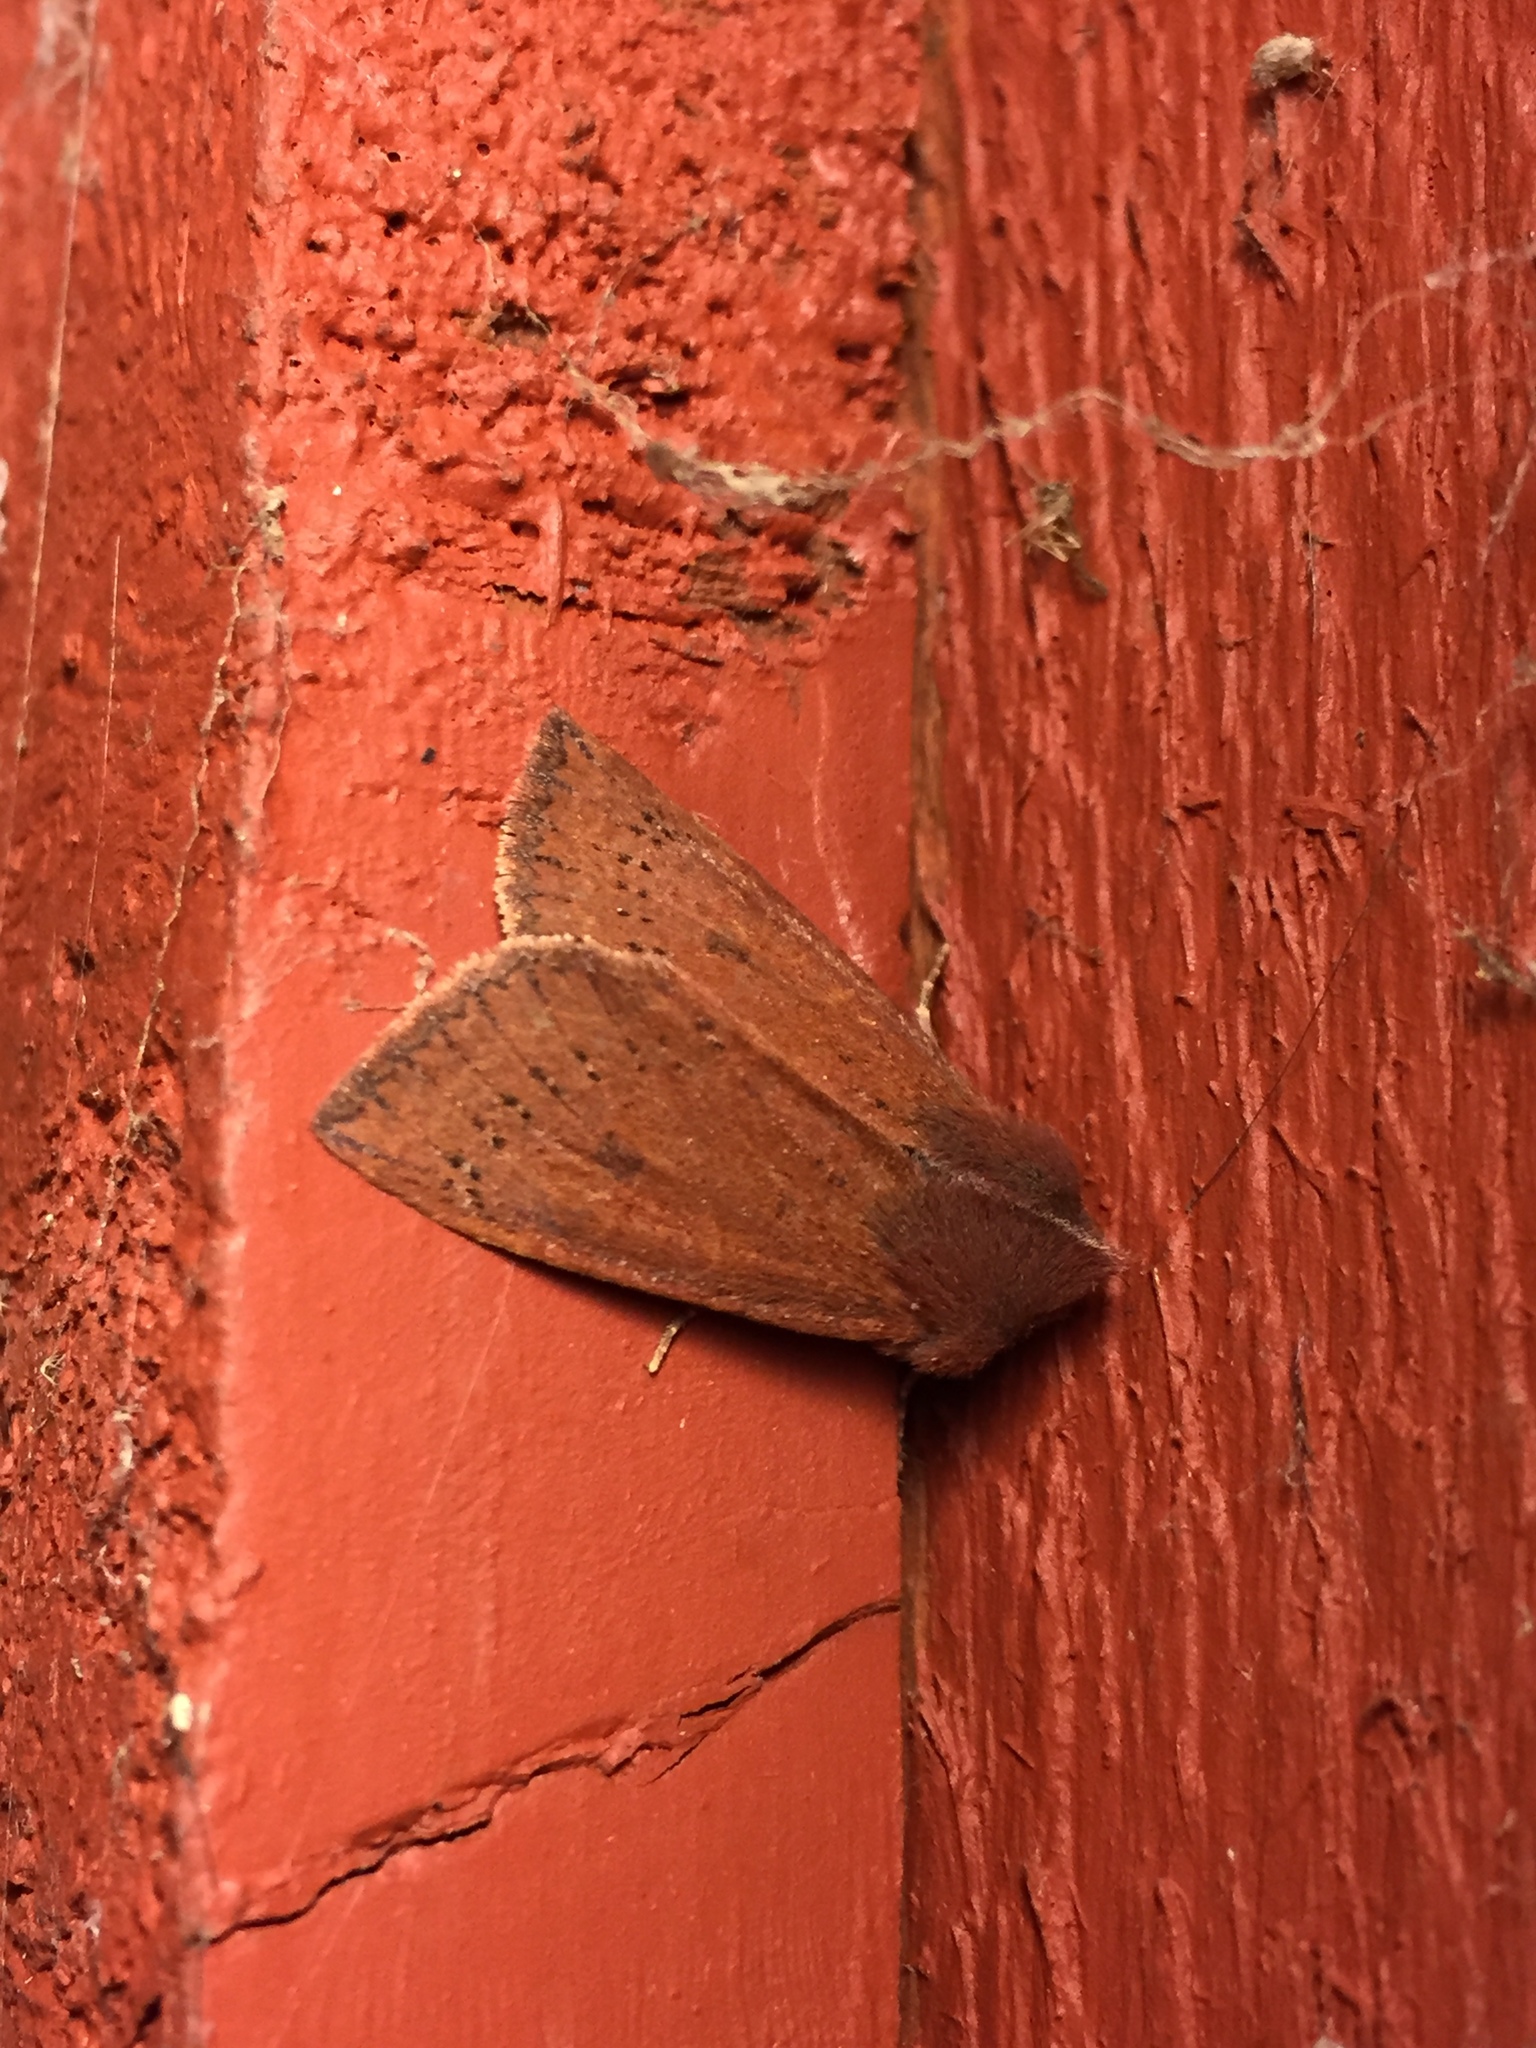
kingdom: Animalia
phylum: Arthropoda
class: Insecta
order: Lepidoptera
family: Noctuidae
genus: Orthosia
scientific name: Orthosia transparens
